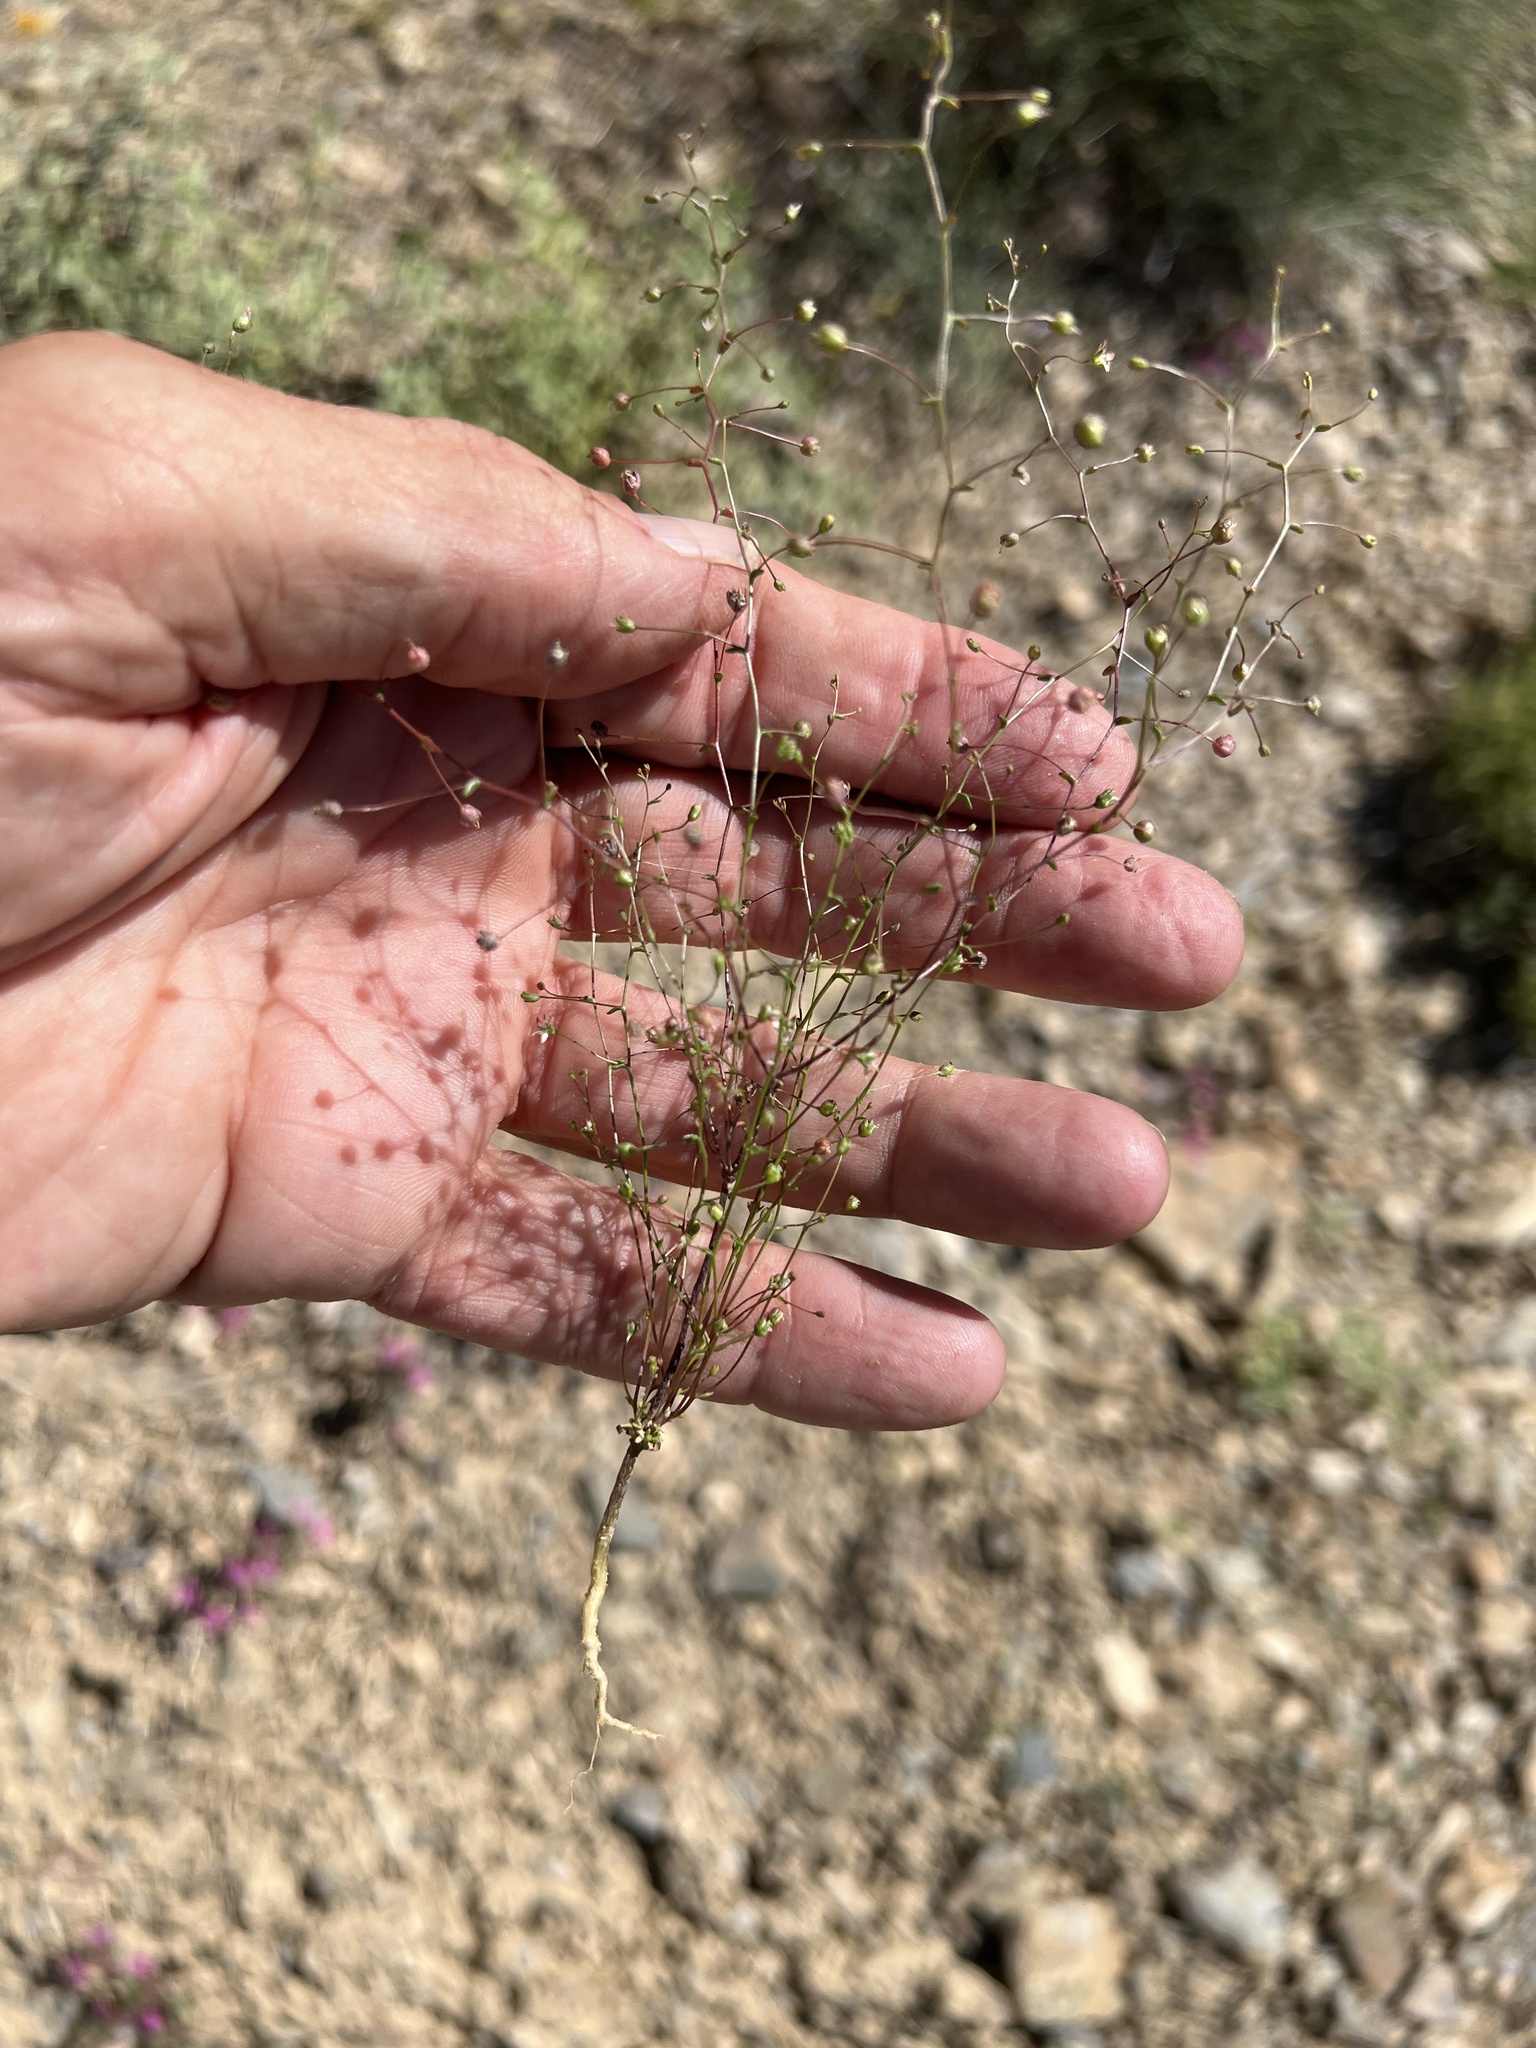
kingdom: Plantae
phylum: Tracheophyta
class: Magnoliopsida
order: Asterales
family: Campanulaceae
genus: Nemacladus
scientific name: Nemacladus morefieldii
